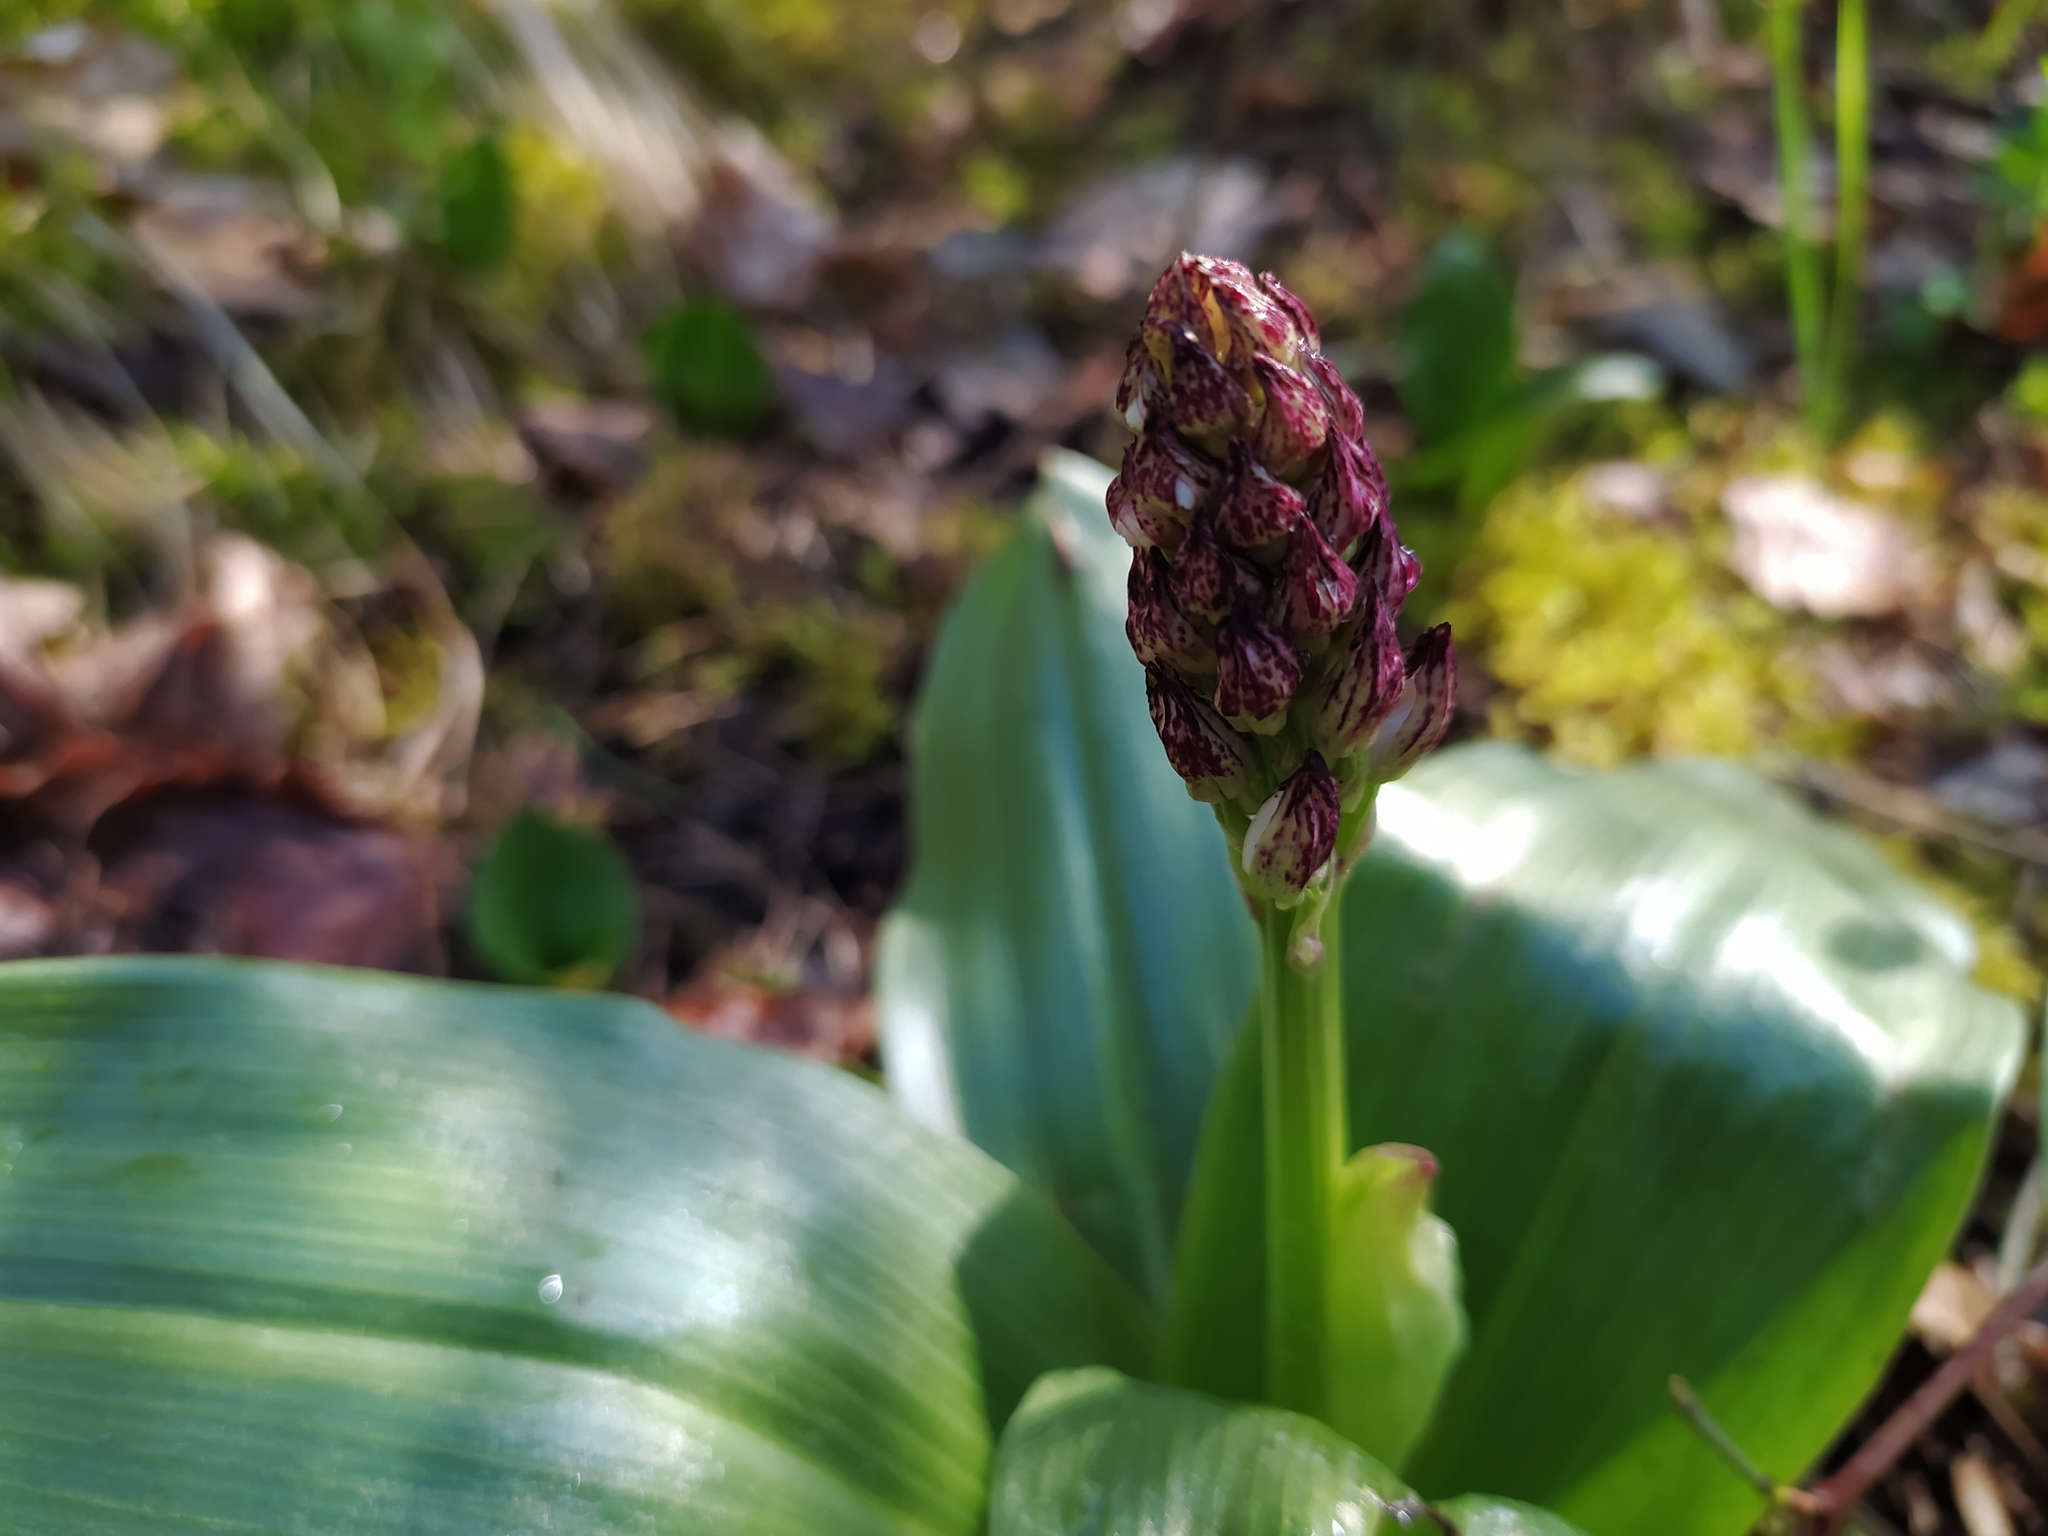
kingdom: Plantae
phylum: Tracheophyta
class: Liliopsida
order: Asparagales
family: Orchidaceae
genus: Orchis
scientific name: Orchis purpurea
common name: Lady orchid
